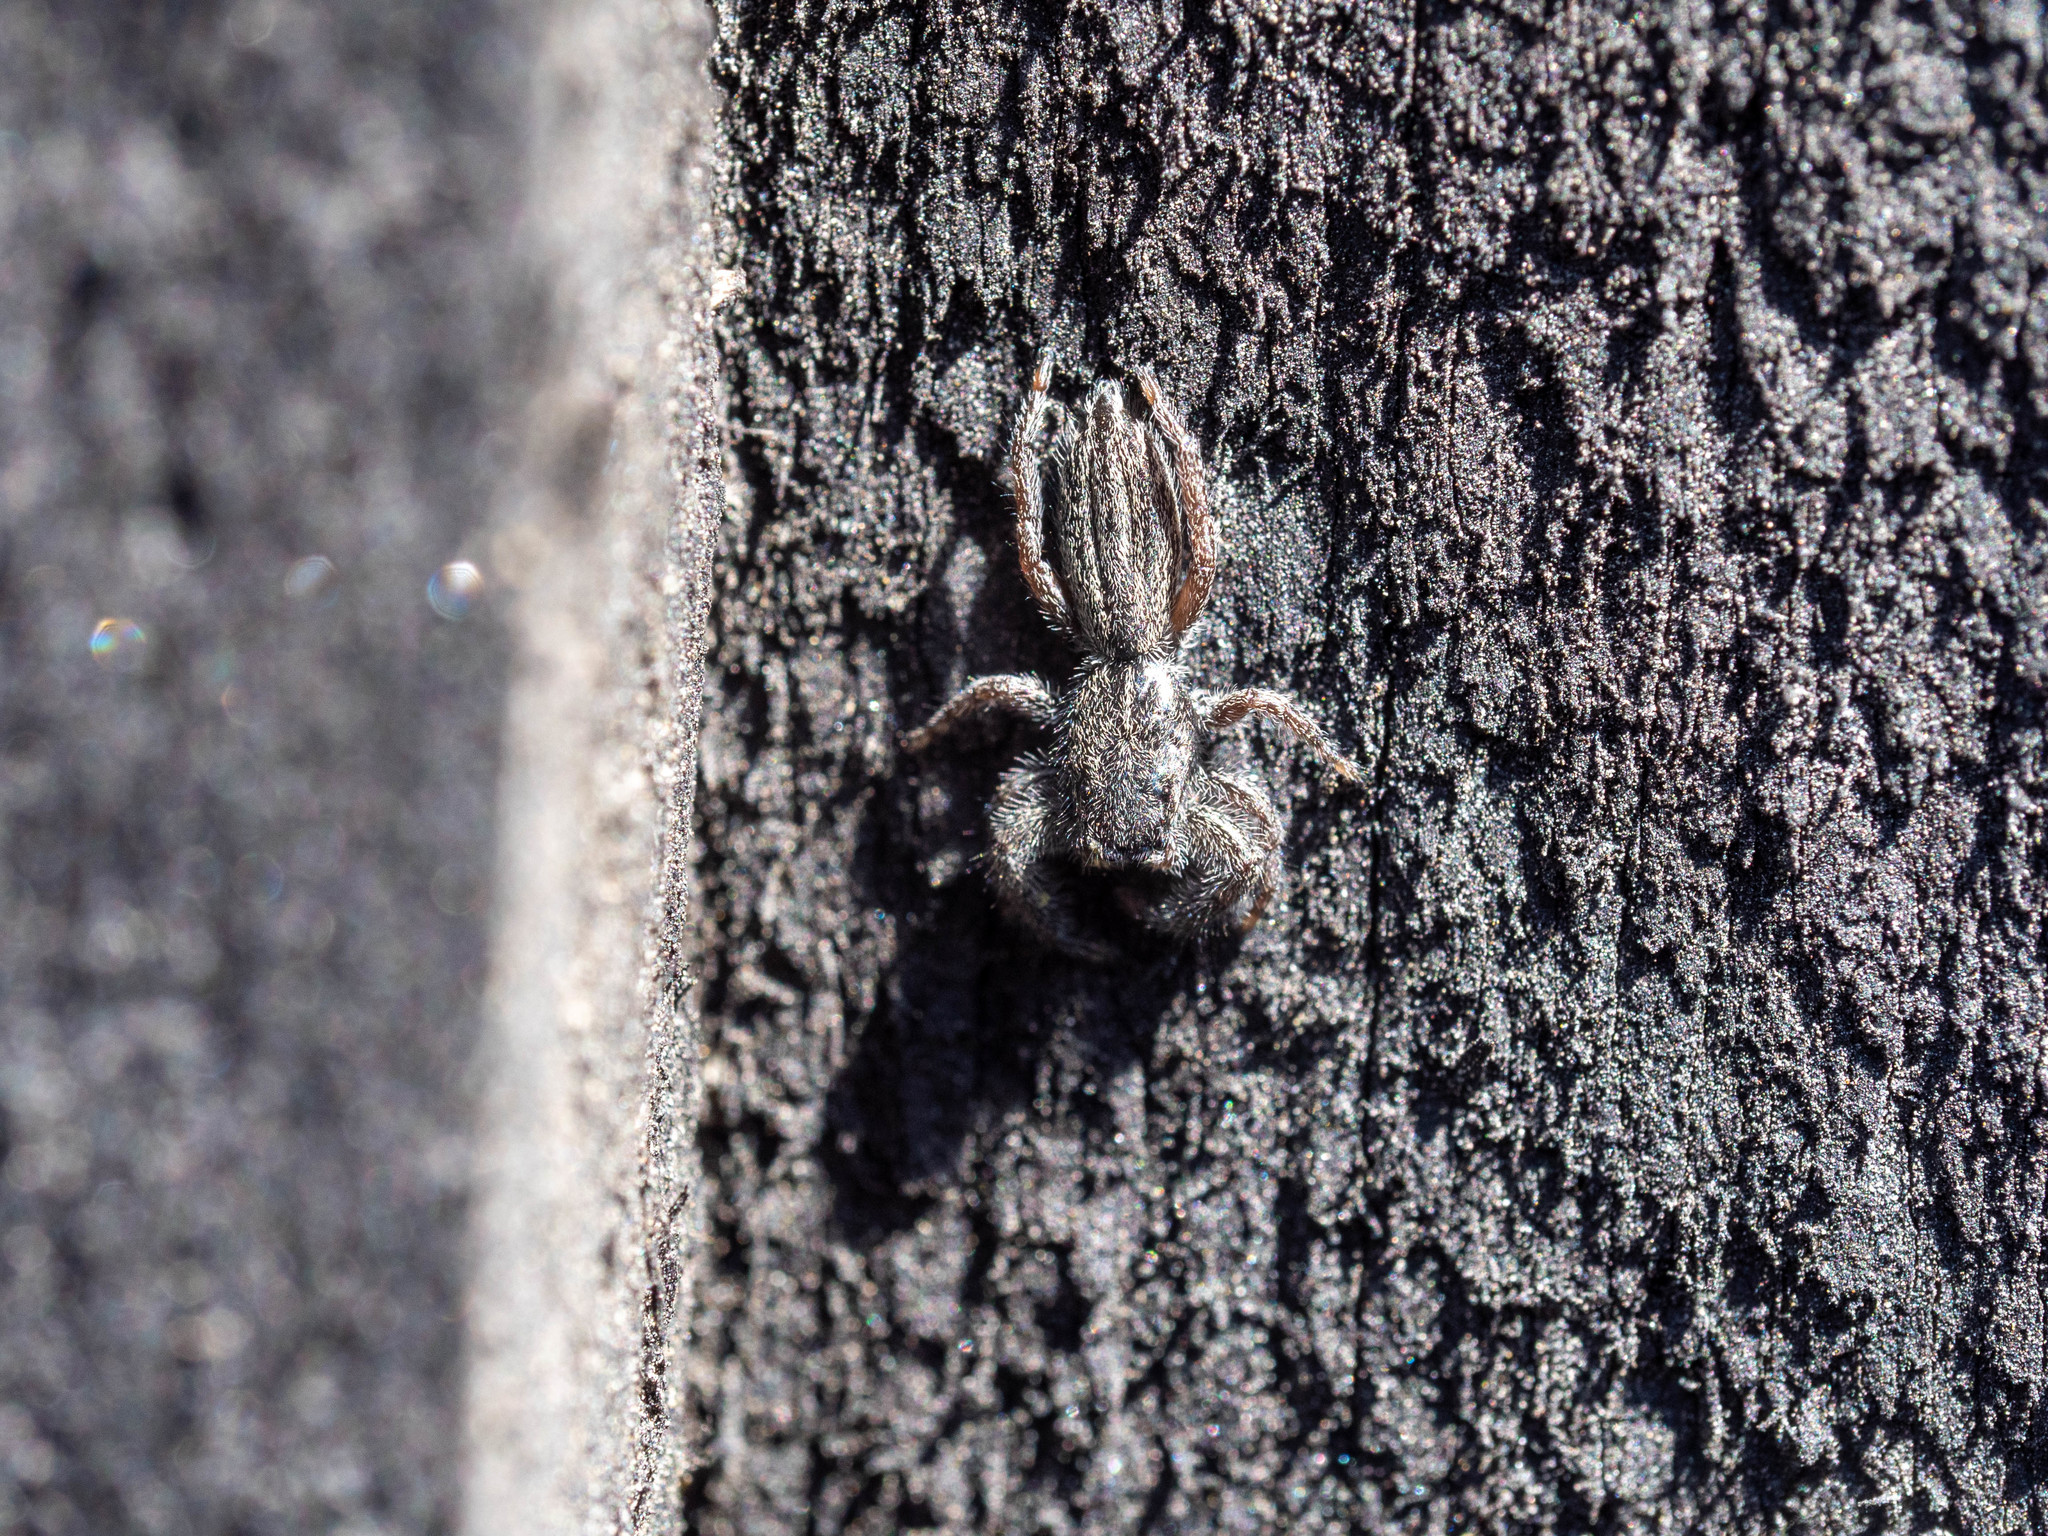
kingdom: Animalia
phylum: Arthropoda
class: Arachnida
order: Araneae
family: Salticidae
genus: Holoplatys
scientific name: Holoplatys apressus
